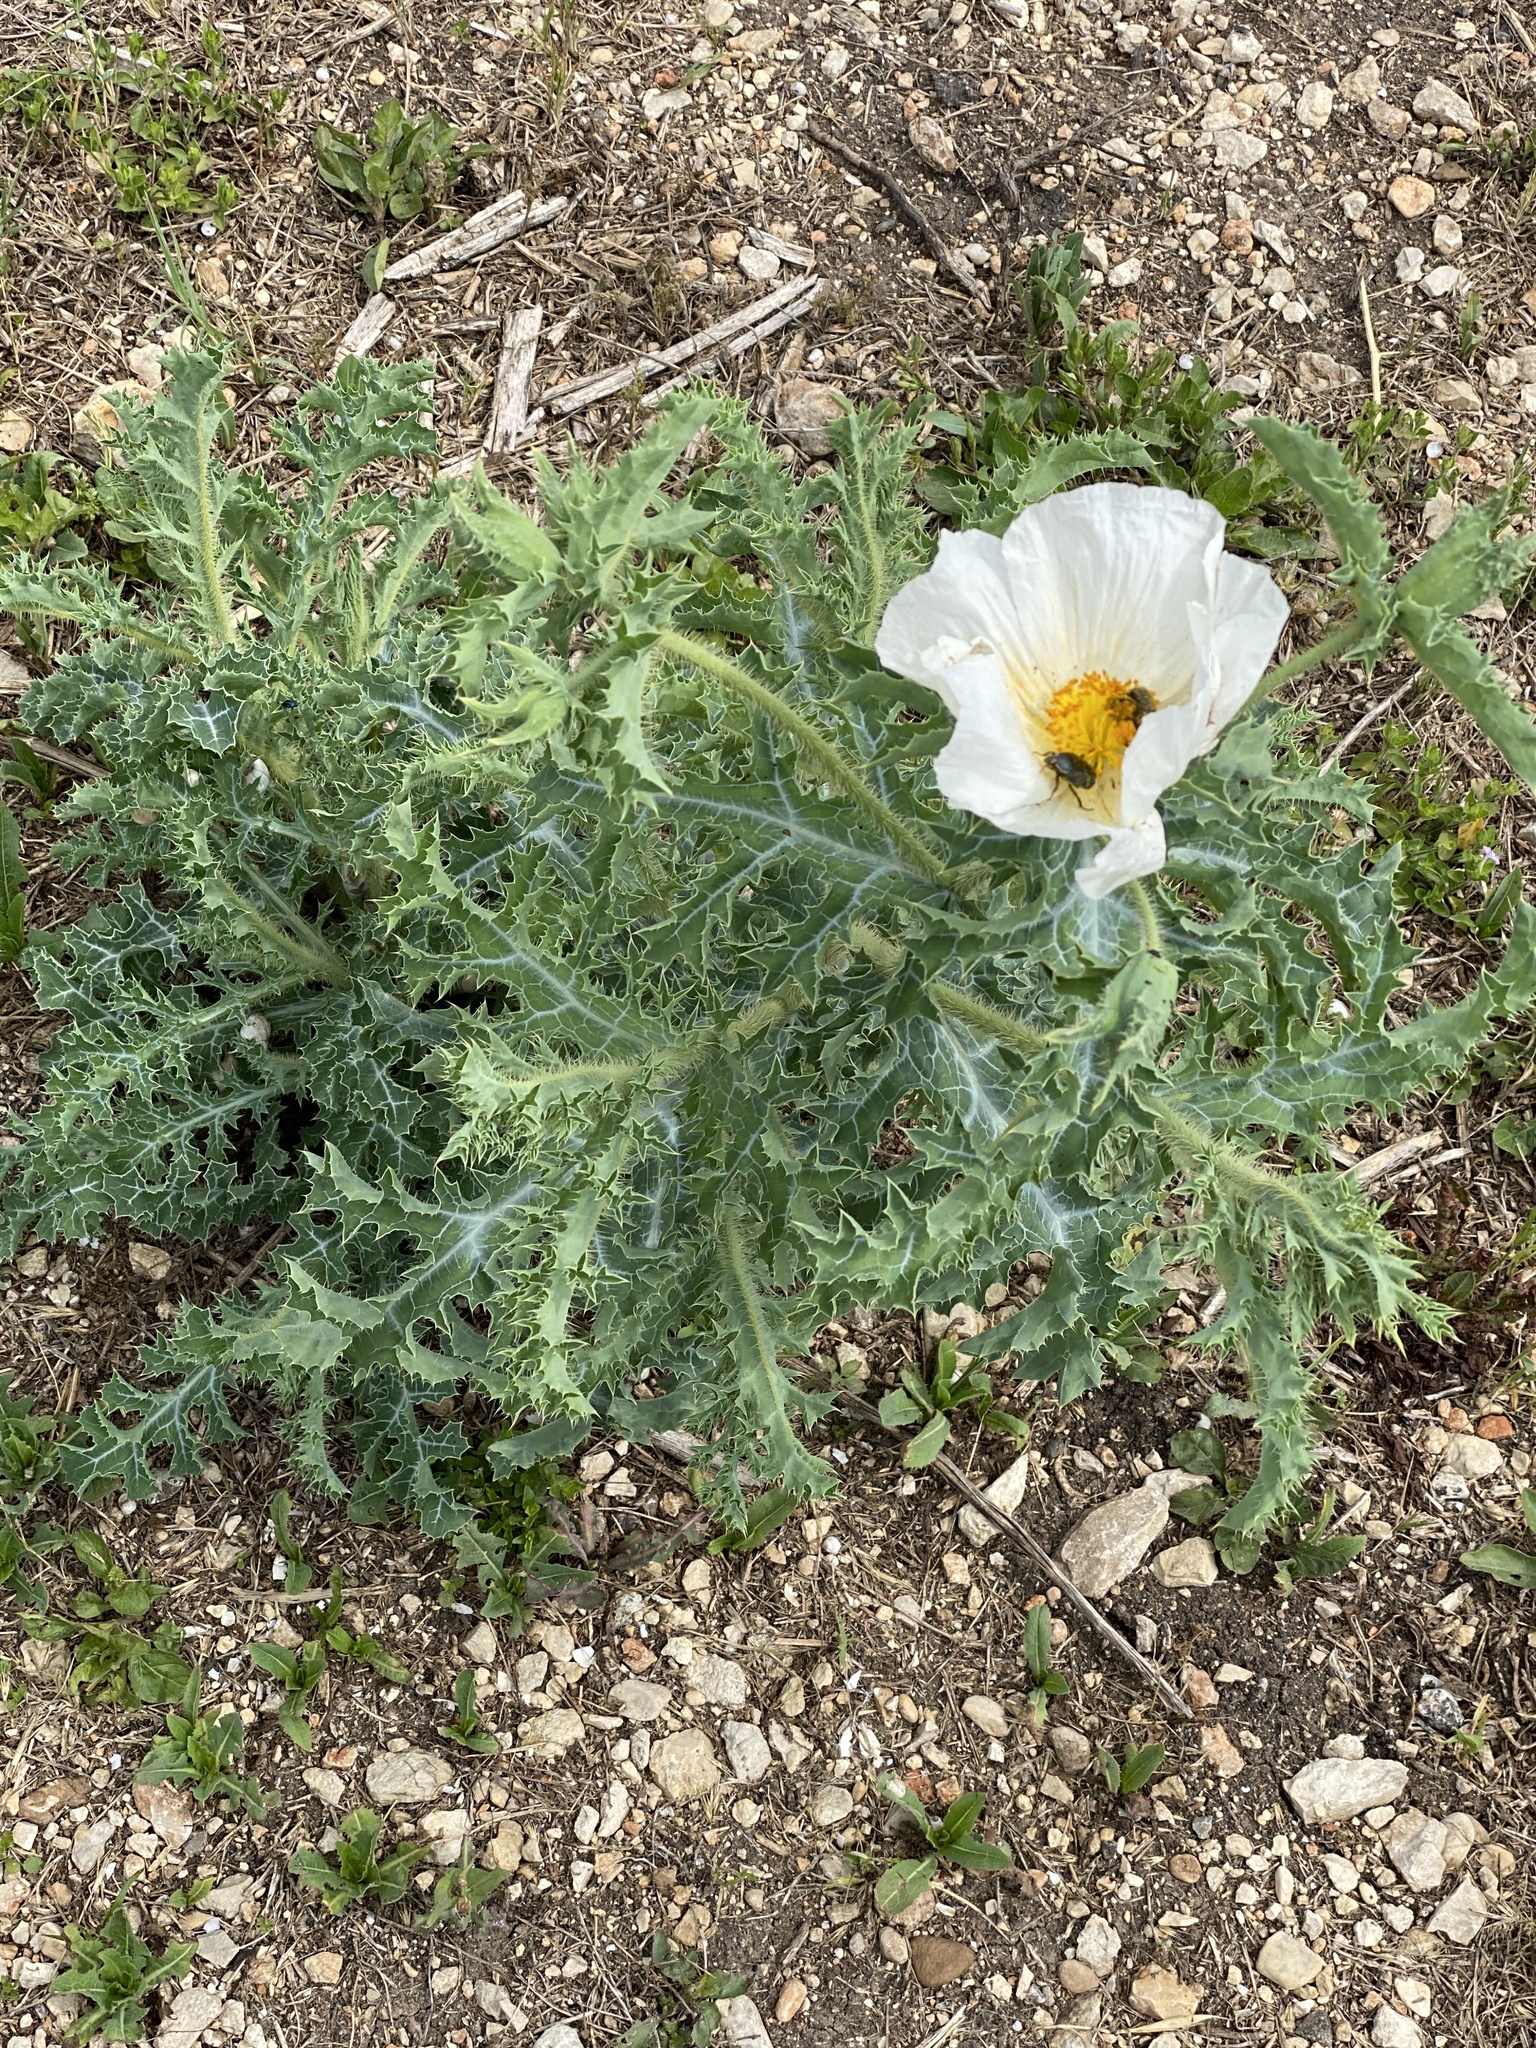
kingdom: Plantae
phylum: Tracheophyta
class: Magnoliopsida
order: Ranunculales
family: Papaveraceae
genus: Argemone
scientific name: Argemone albiflora
